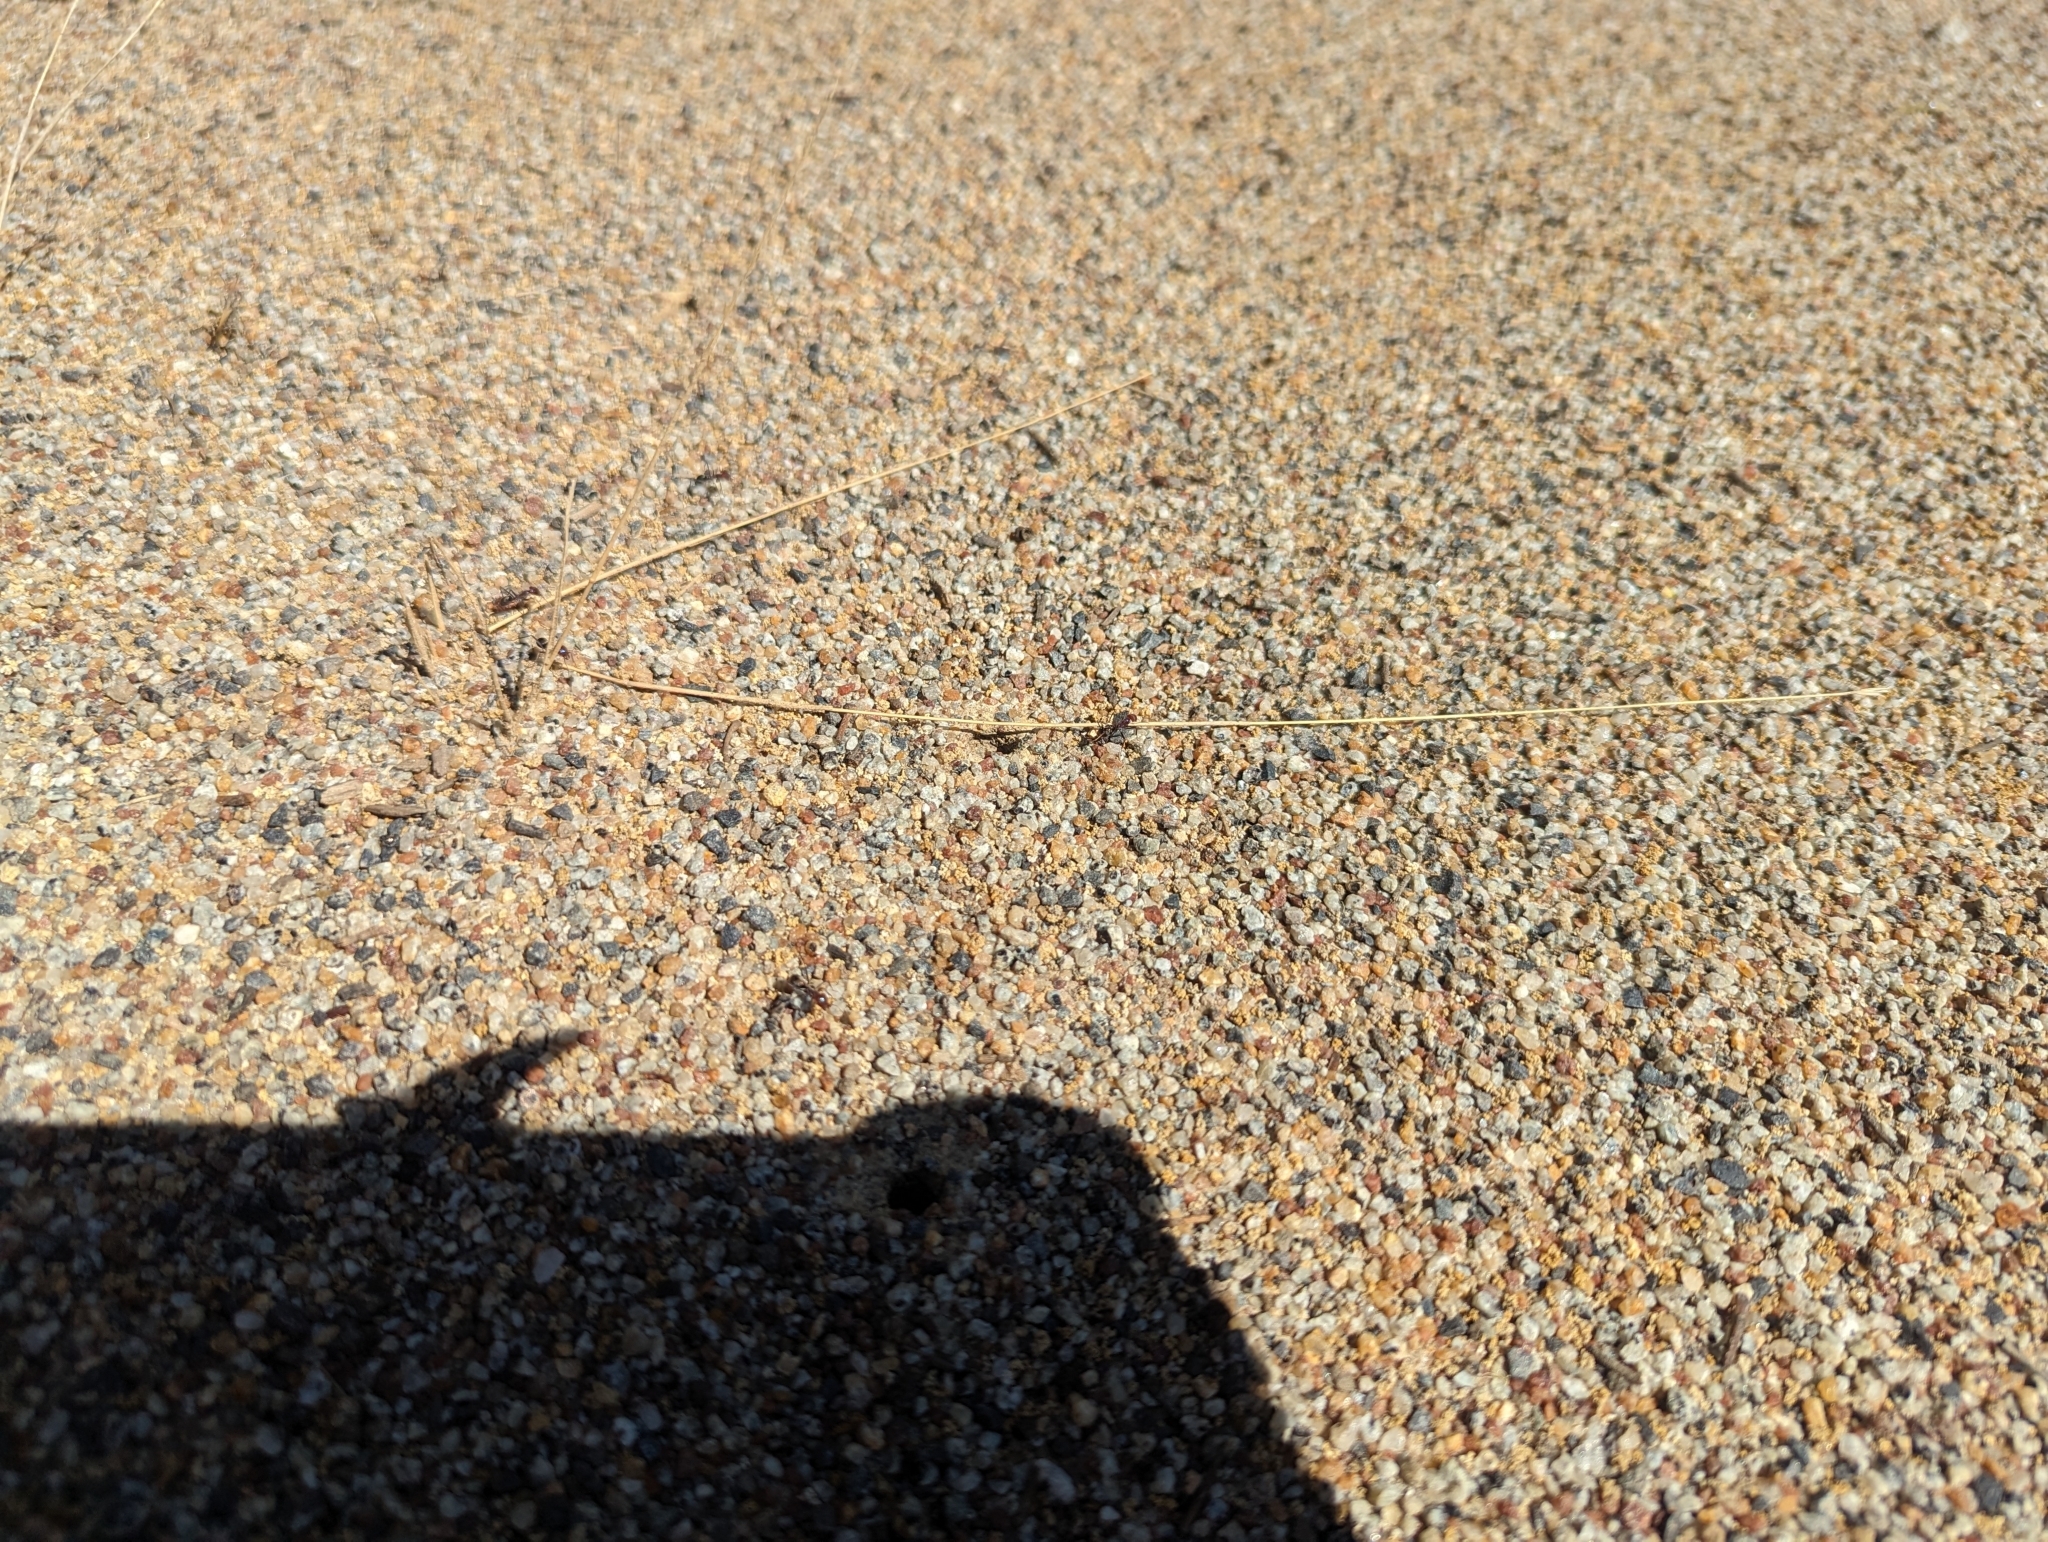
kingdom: Animalia
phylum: Arthropoda
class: Insecta
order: Hymenoptera
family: Formicidae
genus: Iridomyrmex
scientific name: Iridomyrmex purpureus
